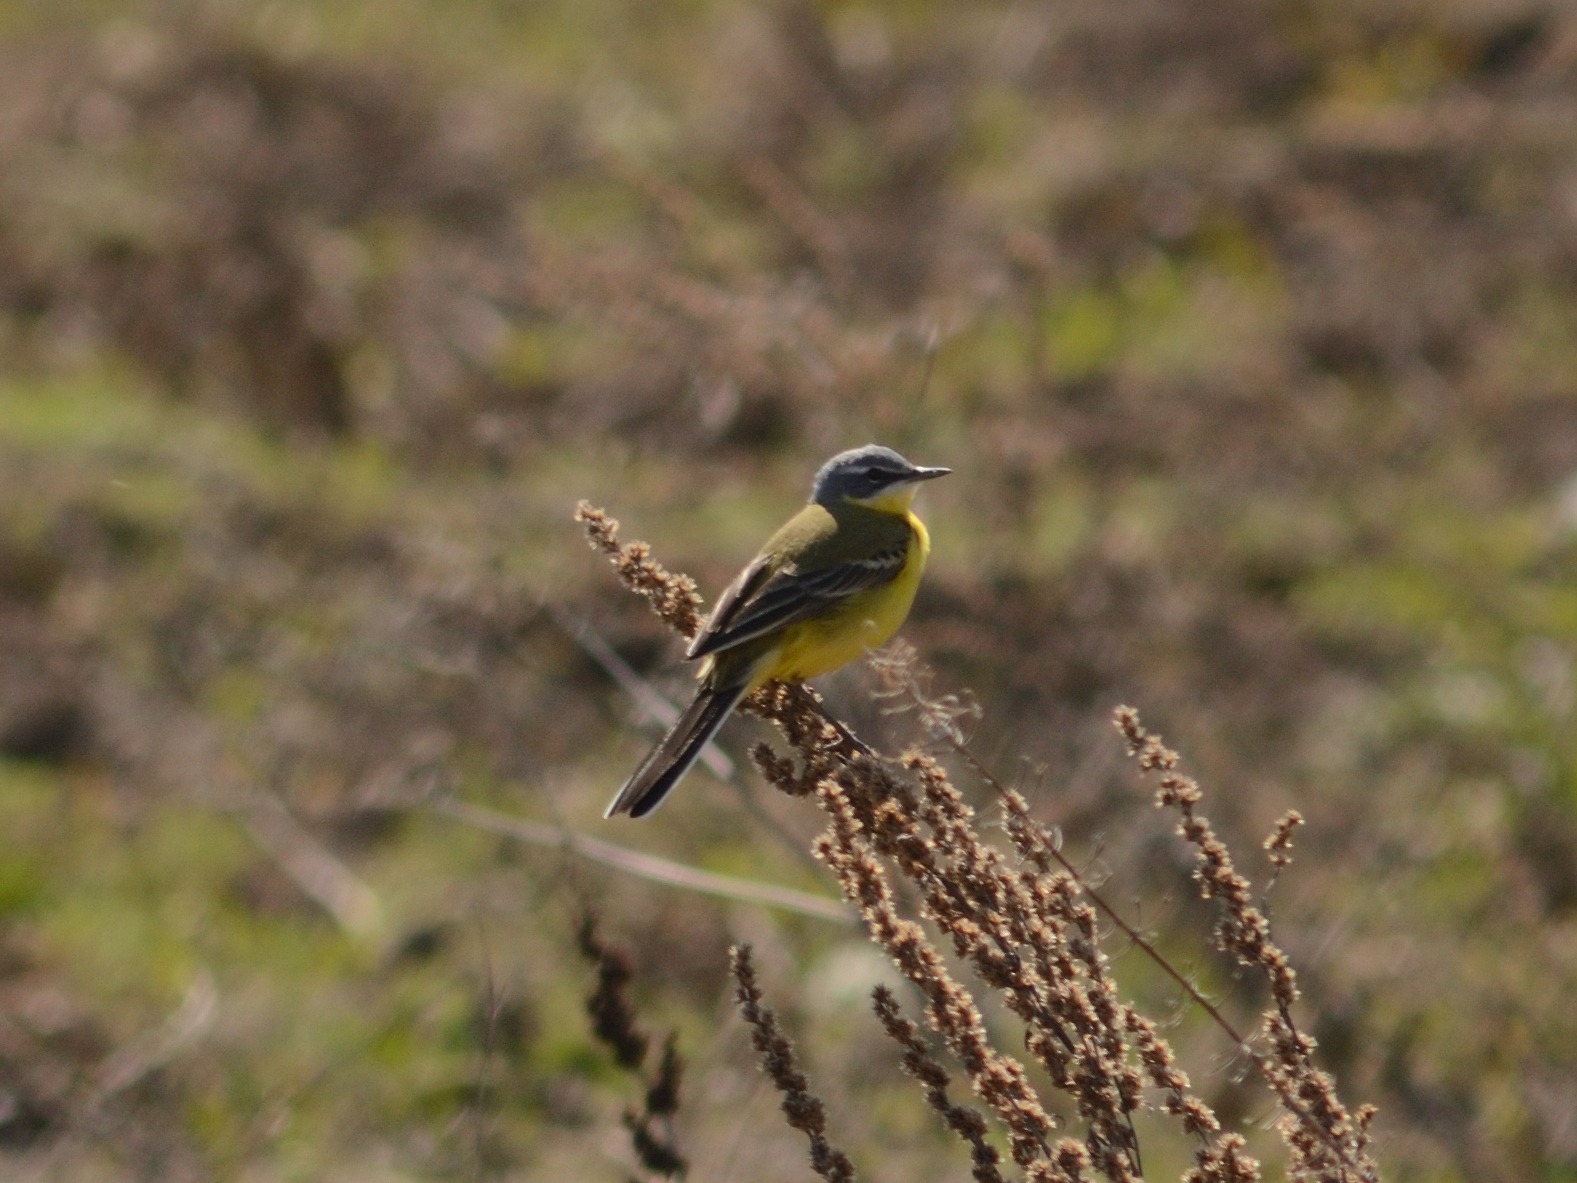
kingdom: Animalia
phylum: Chordata
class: Aves
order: Passeriformes
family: Motacillidae
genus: Motacilla
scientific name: Motacilla flava
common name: Western yellow wagtail
